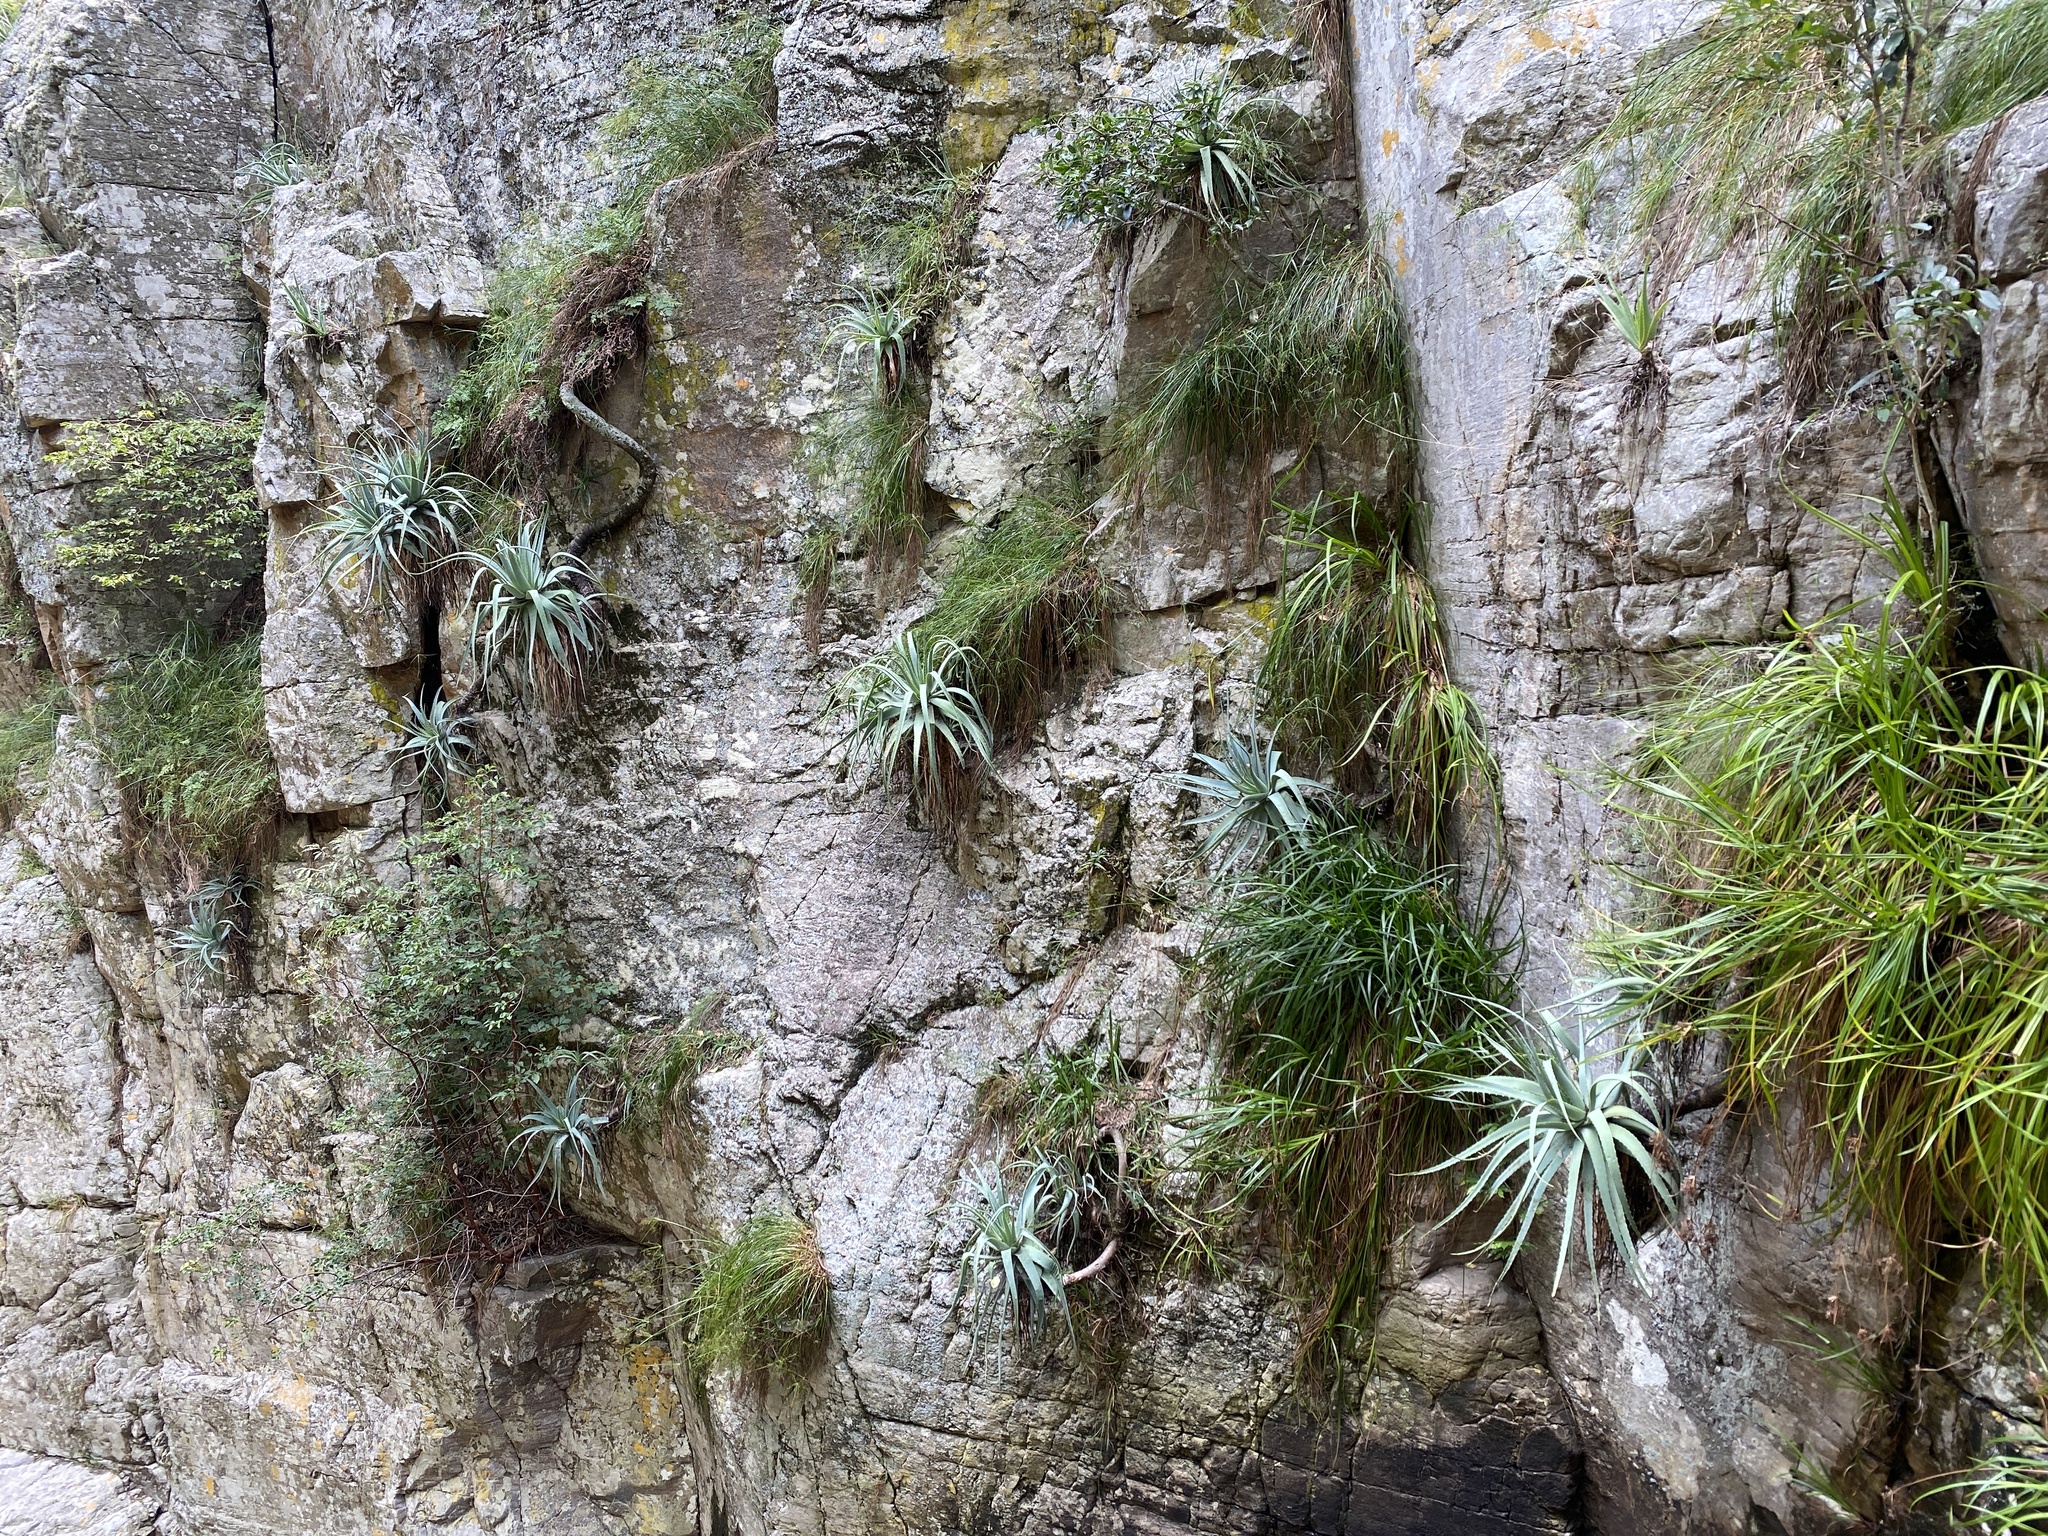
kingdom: Plantae
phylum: Tracheophyta
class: Liliopsida
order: Asparagales
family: Asphodelaceae
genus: Aloe
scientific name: Aloe mutabilis
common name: Blue krantz aloe
